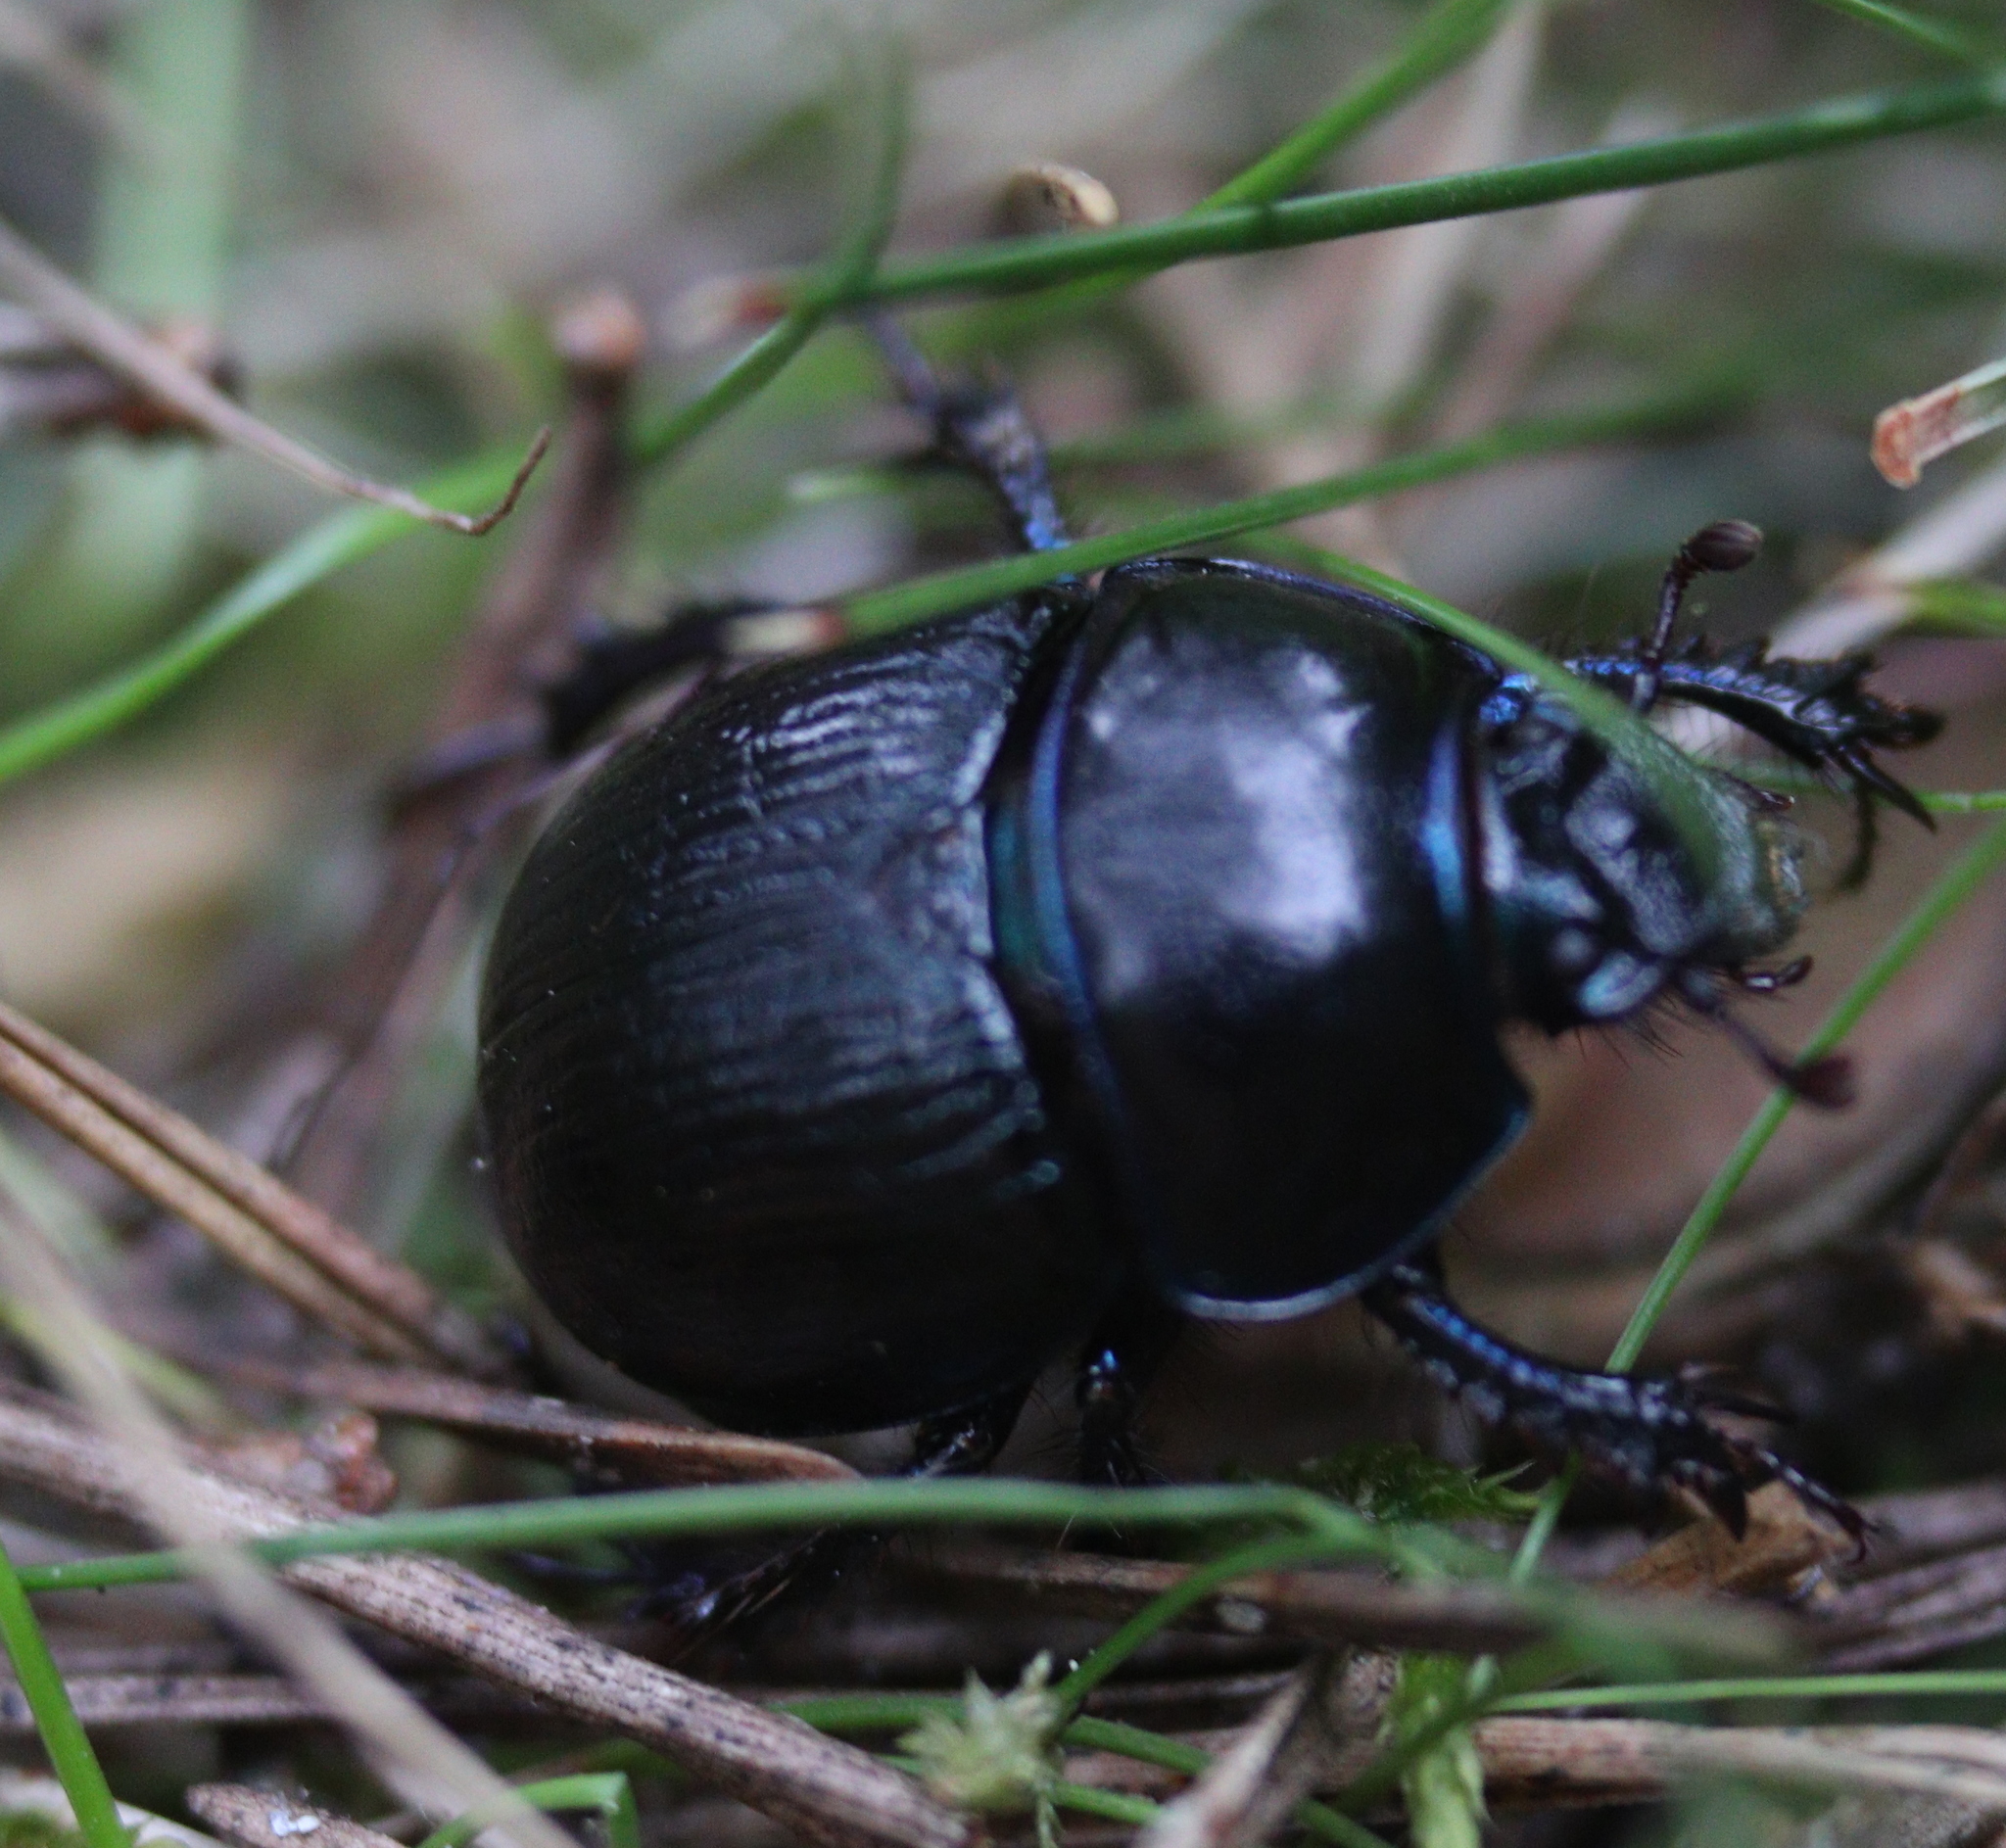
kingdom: Animalia
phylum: Arthropoda
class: Insecta
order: Coleoptera
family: Geotrupidae
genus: Anoplotrupes
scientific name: Anoplotrupes stercorosus
